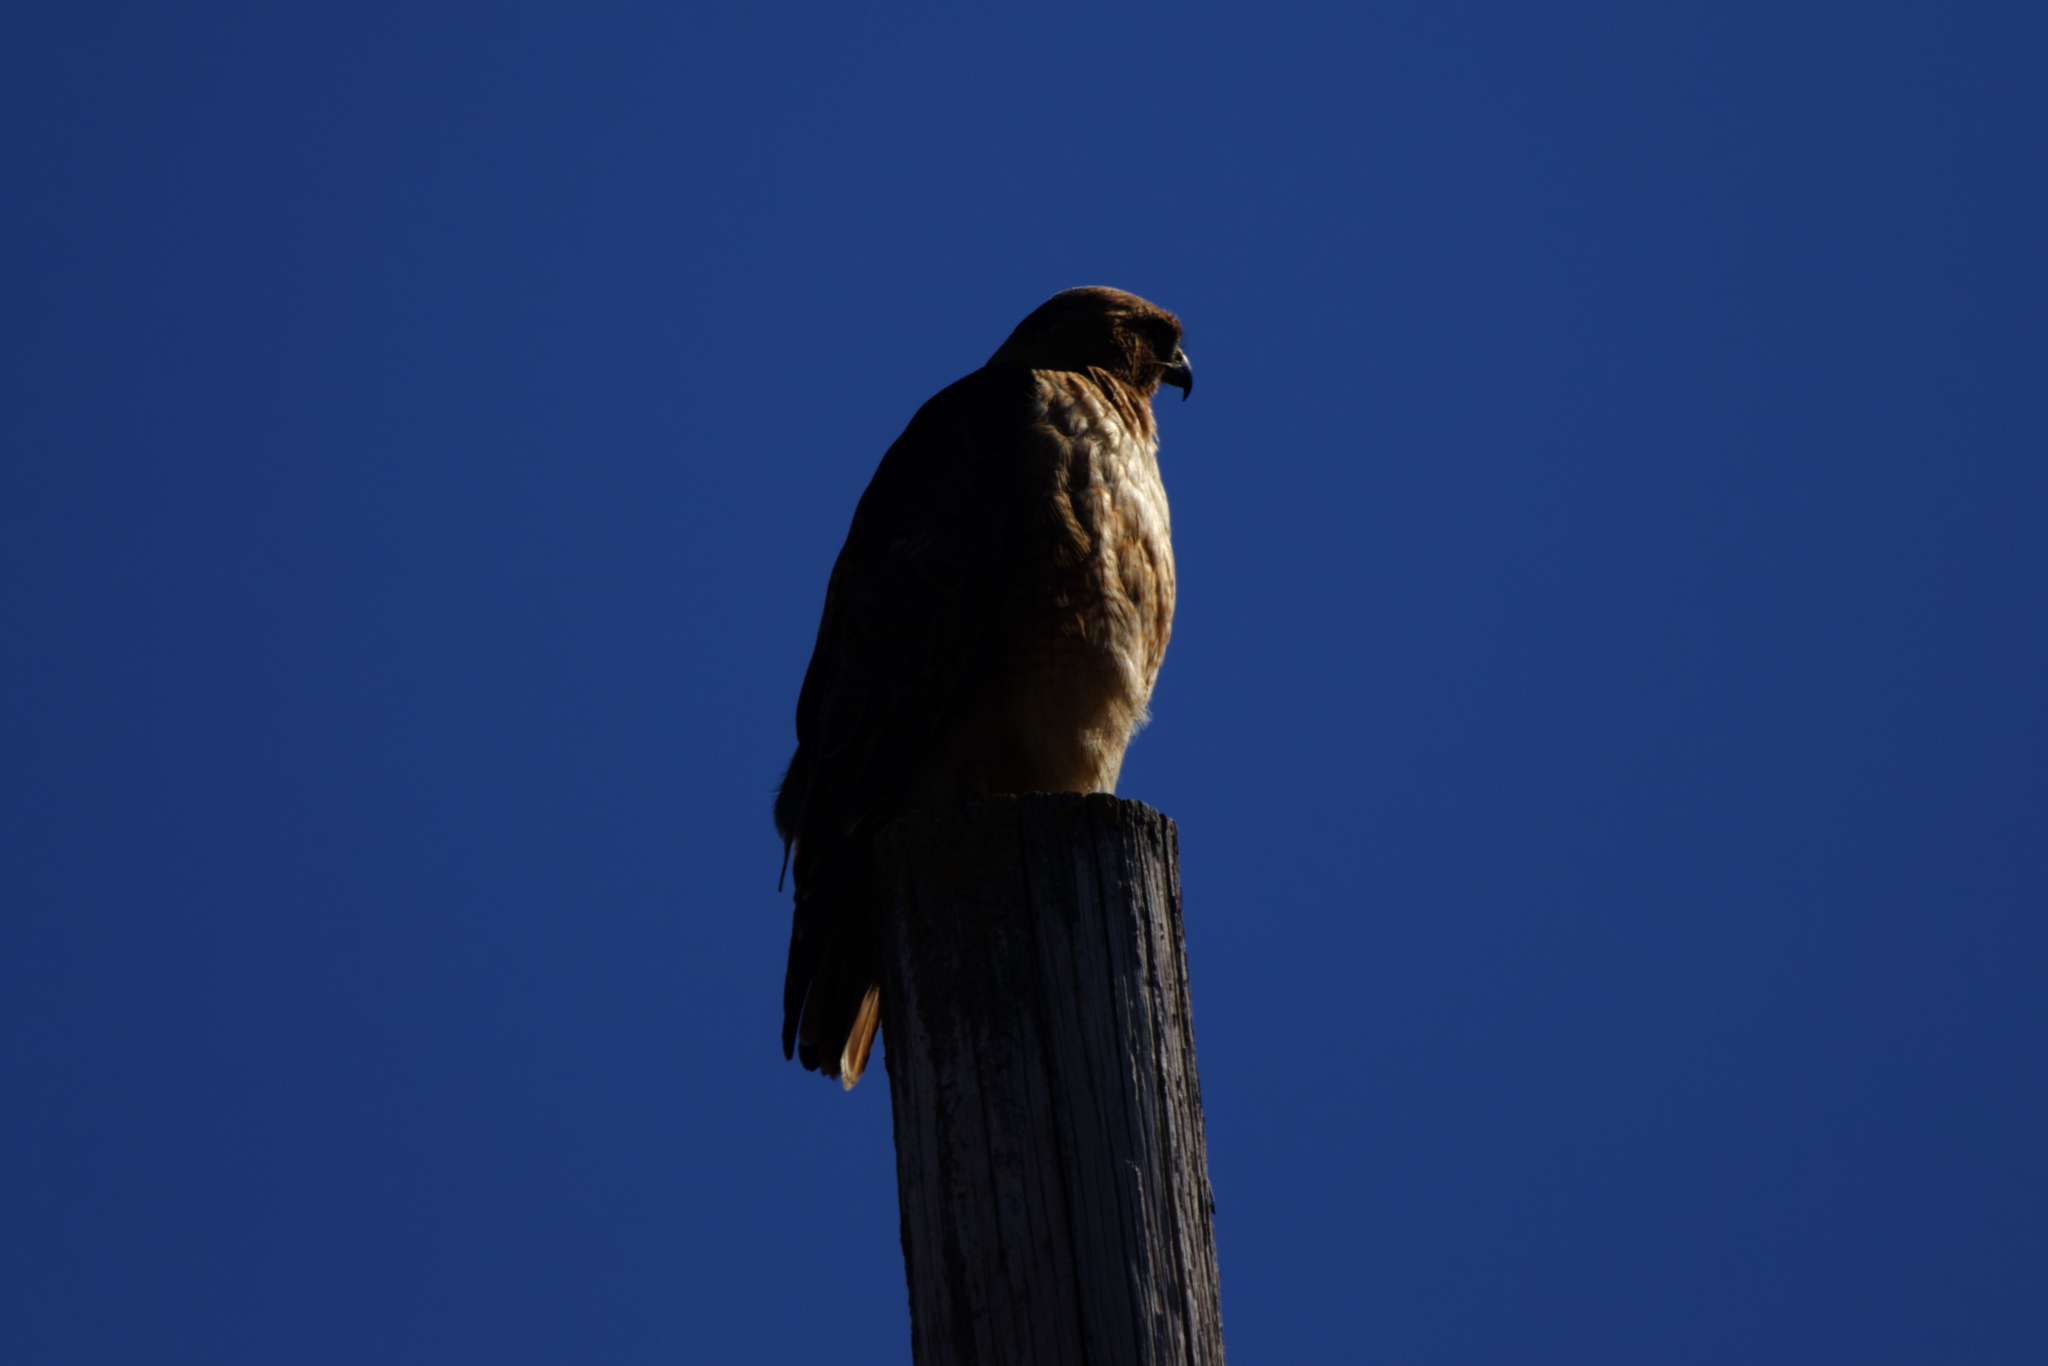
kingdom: Animalia
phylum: Chordata
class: Aves
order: Accipitriformes
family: Accipitridae
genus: Buteo
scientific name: Buteo jamaicensis
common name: Red-tailed hawk
